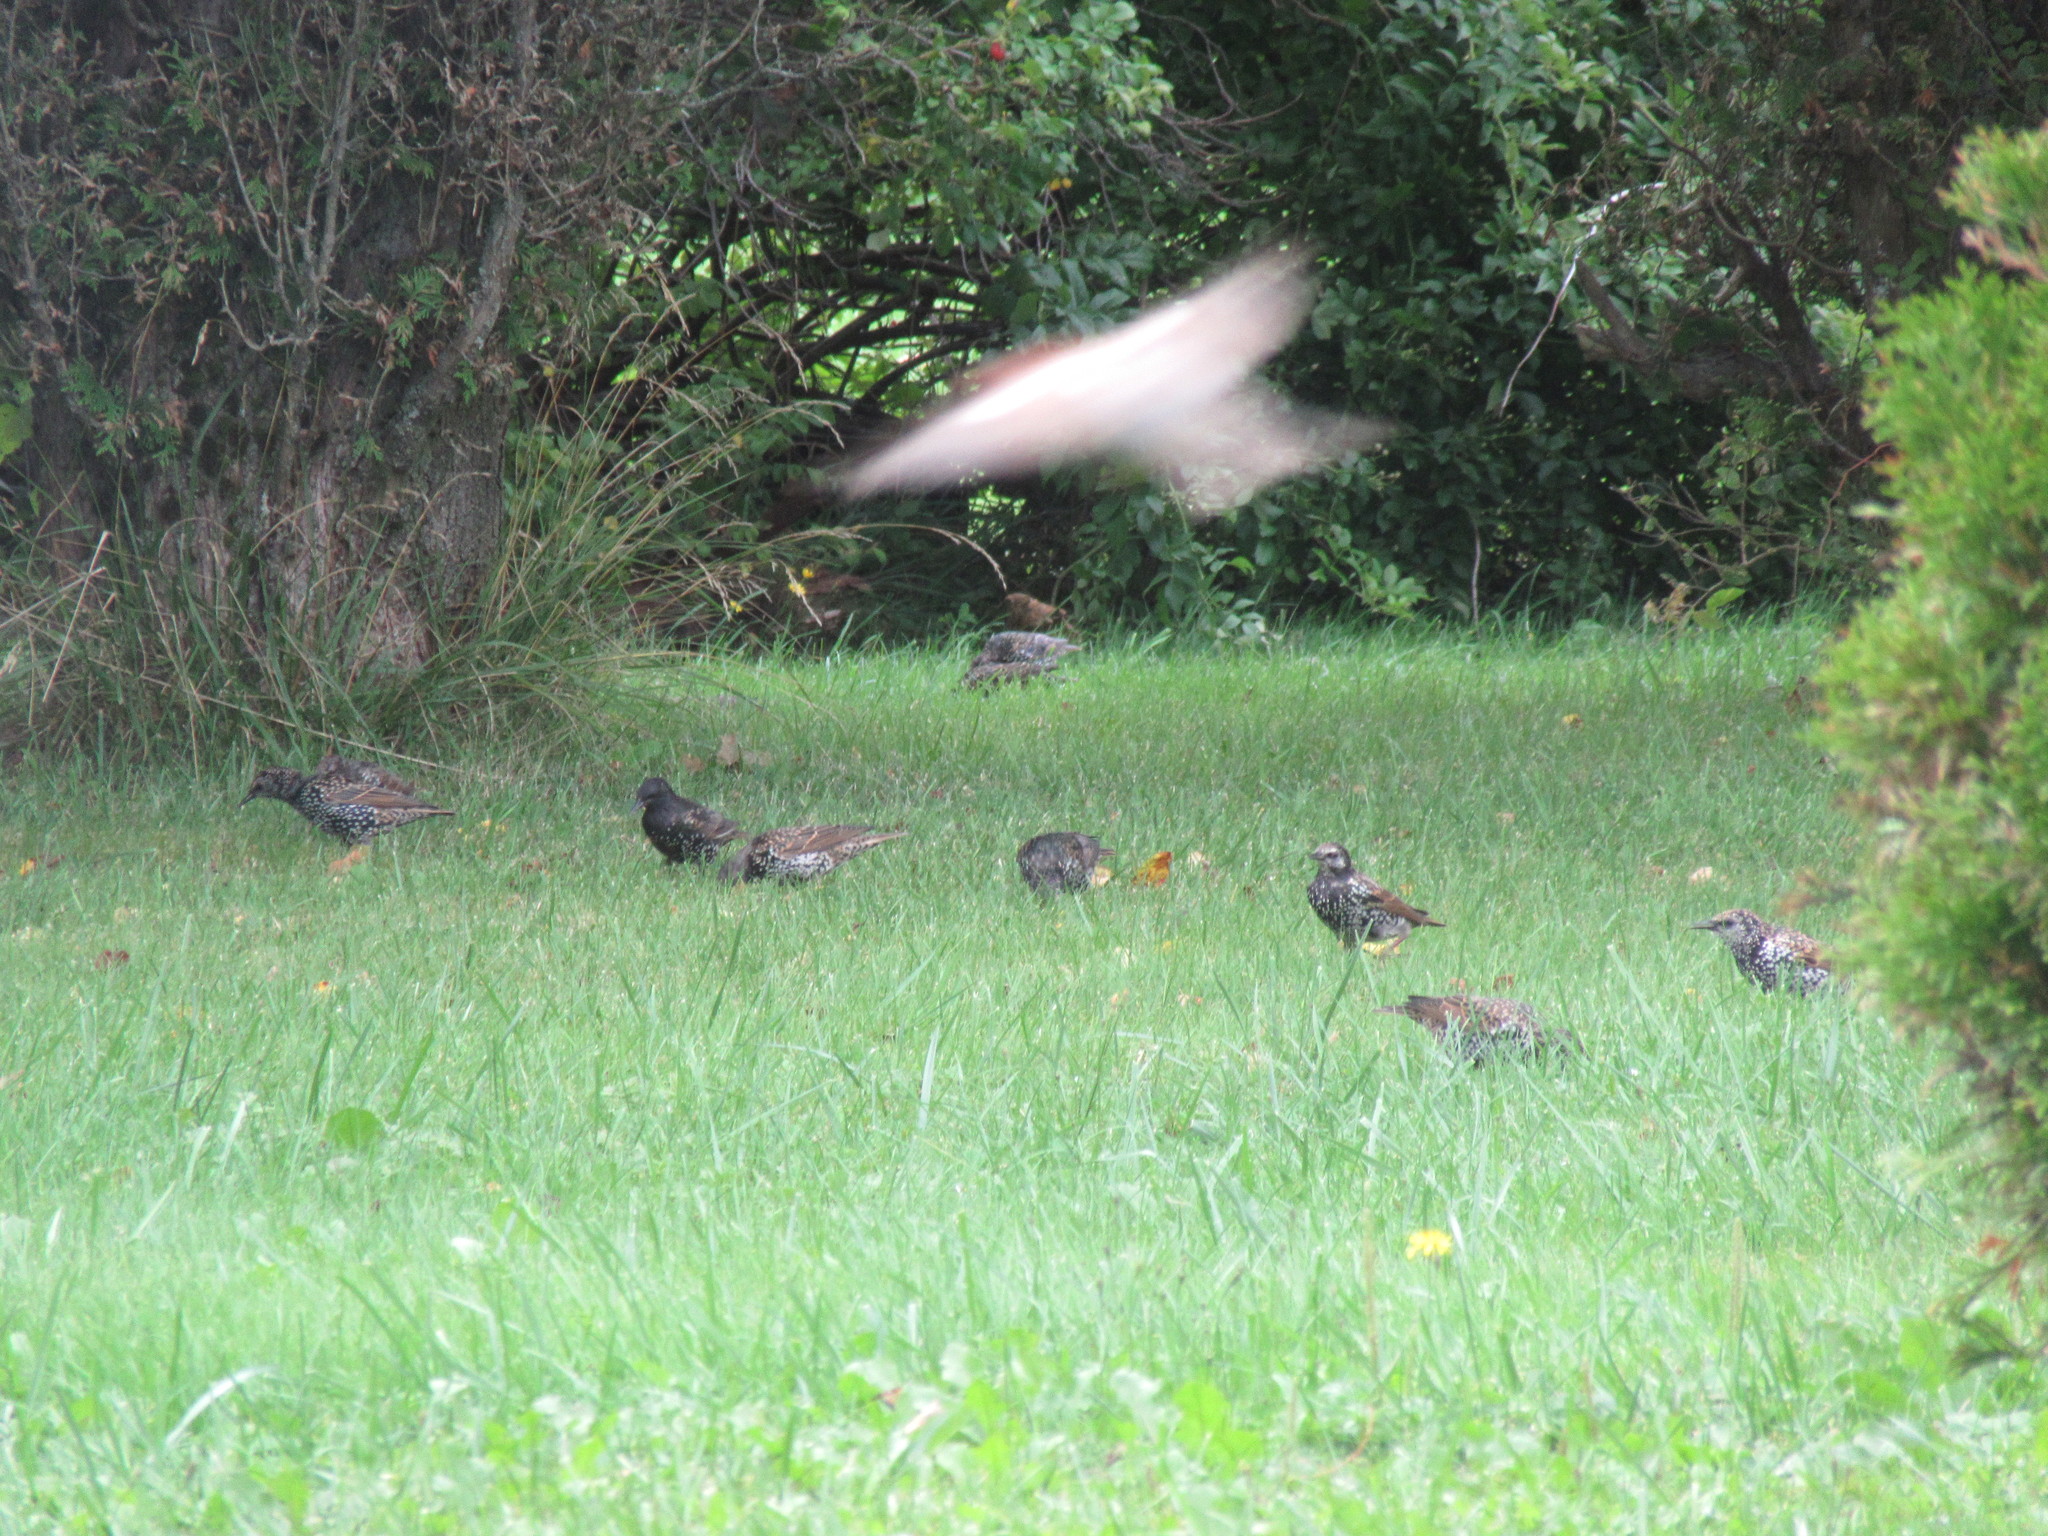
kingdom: Animalia
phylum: Chordata
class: Aves
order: Passeriformes
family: Sturnidae
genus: Sturnus
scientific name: Sturnus vulgaris
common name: Common starling
